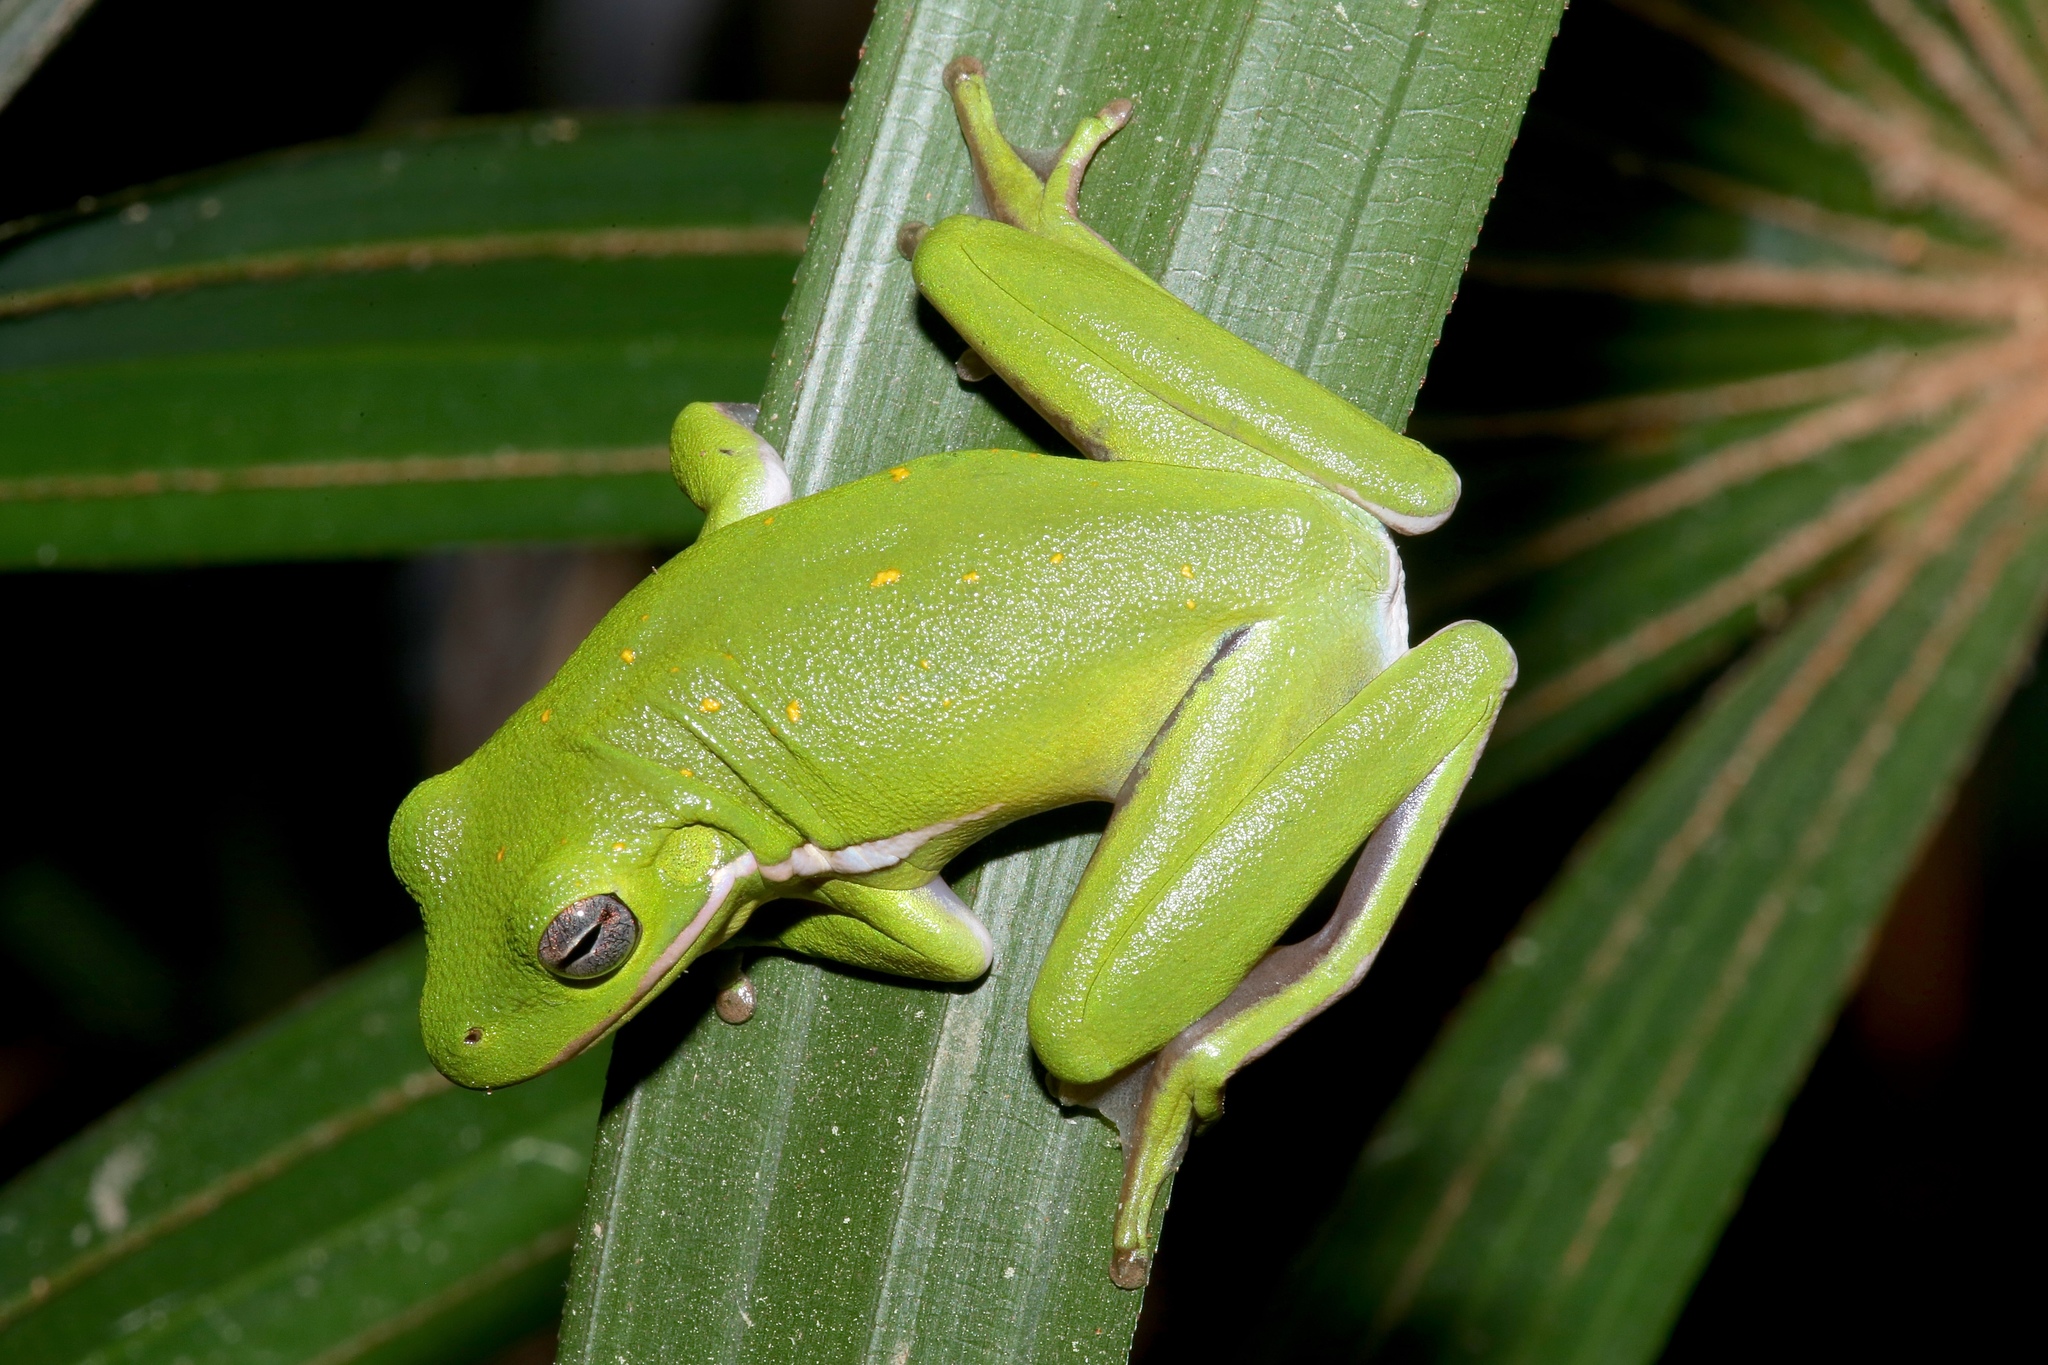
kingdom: Animalia
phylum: Chordata
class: Amphibia
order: Anura
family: Hylidae
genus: Dryophytes
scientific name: Dryophytes cinereus
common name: Green treefrog
